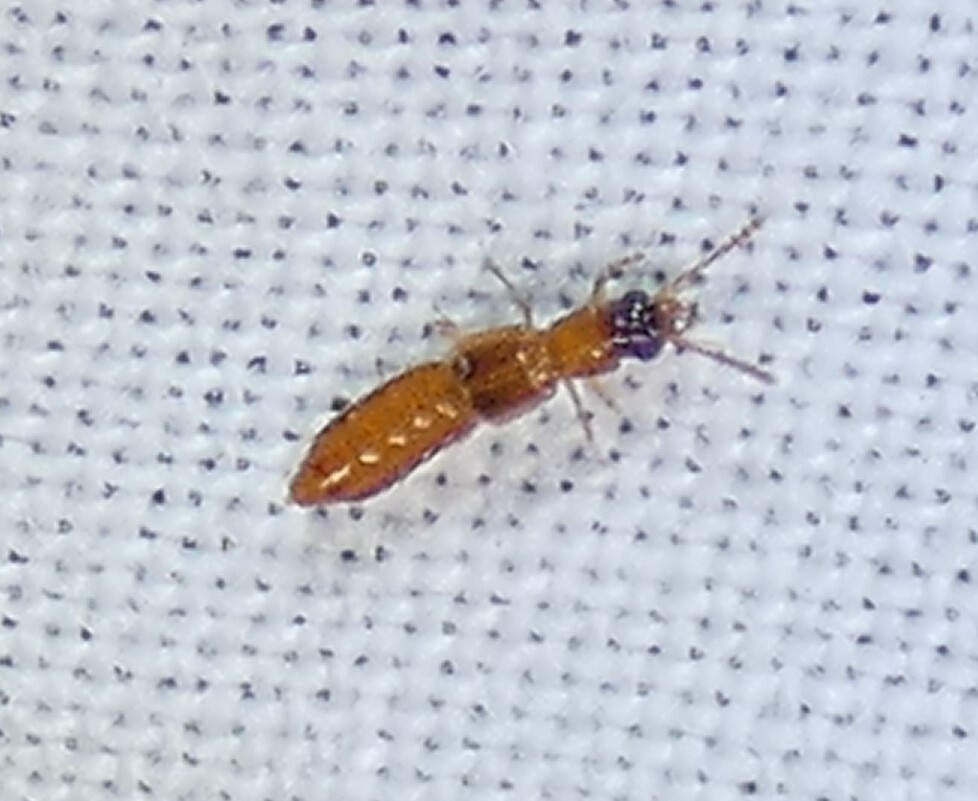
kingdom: Animalia
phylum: Arthropoda
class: Insecta
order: Coleoptera
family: Staphylinidae
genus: Manda
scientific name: Manda nearctica
